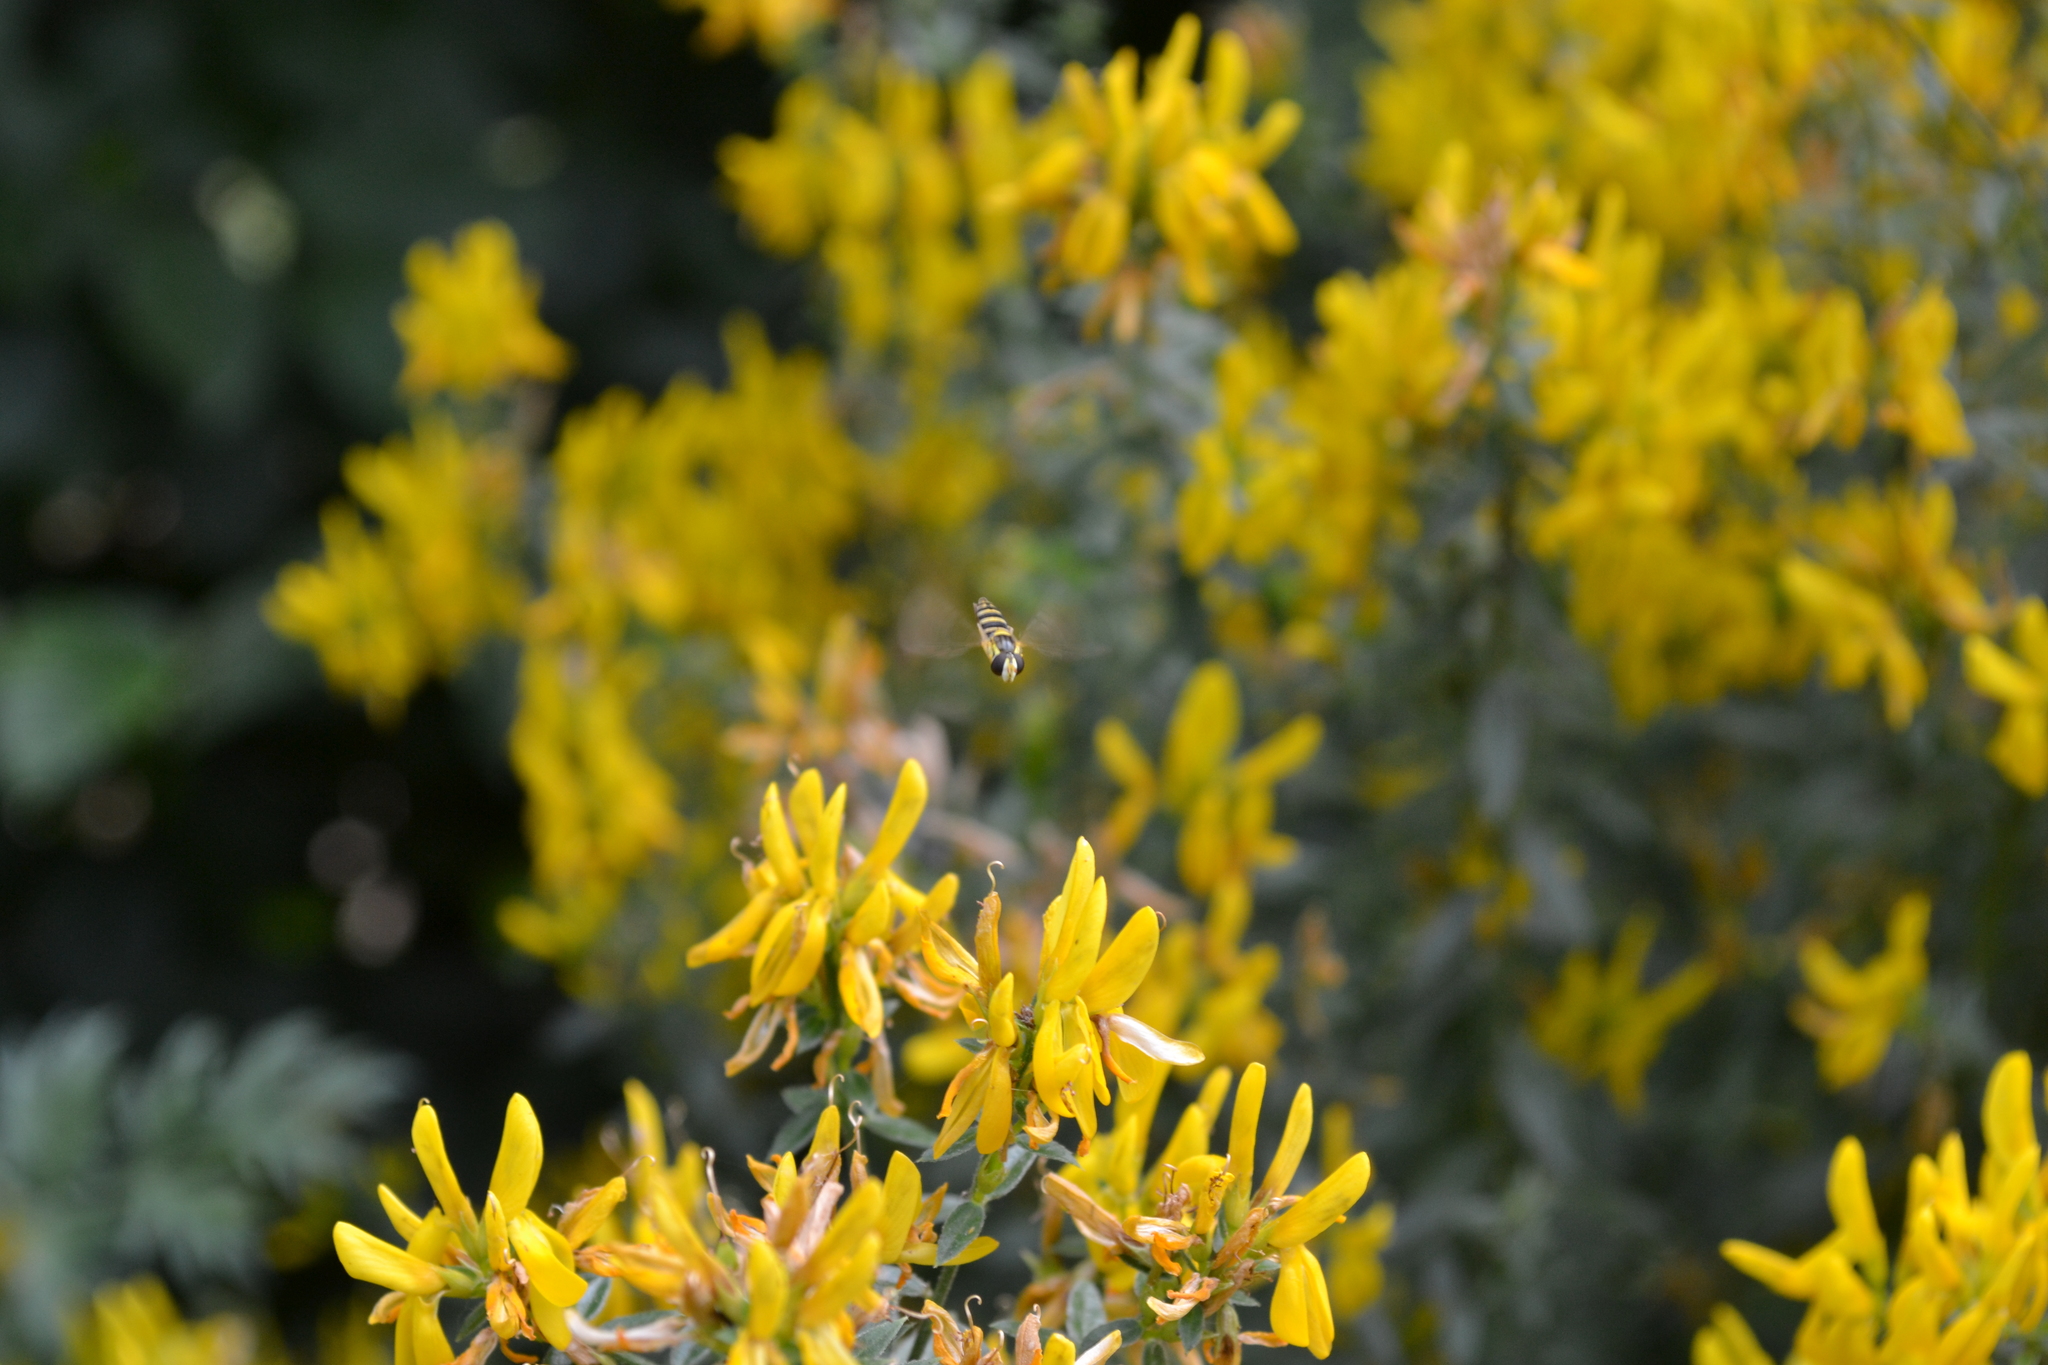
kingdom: Animalia
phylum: Arthropoda
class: Insecta
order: Diptera
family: Syrphidae
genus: Sphaerophoria
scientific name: Sphaerophoria scripta
